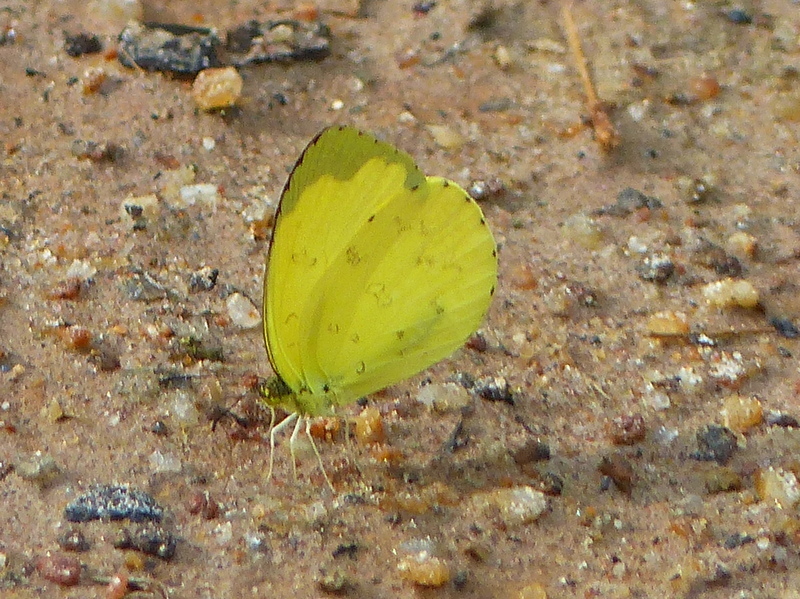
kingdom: Animalia
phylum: Arthropoda
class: Insecta
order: Lepidoptera
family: Pieridae
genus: Eurema
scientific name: Eurema hecabe
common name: Pale grass yellow
